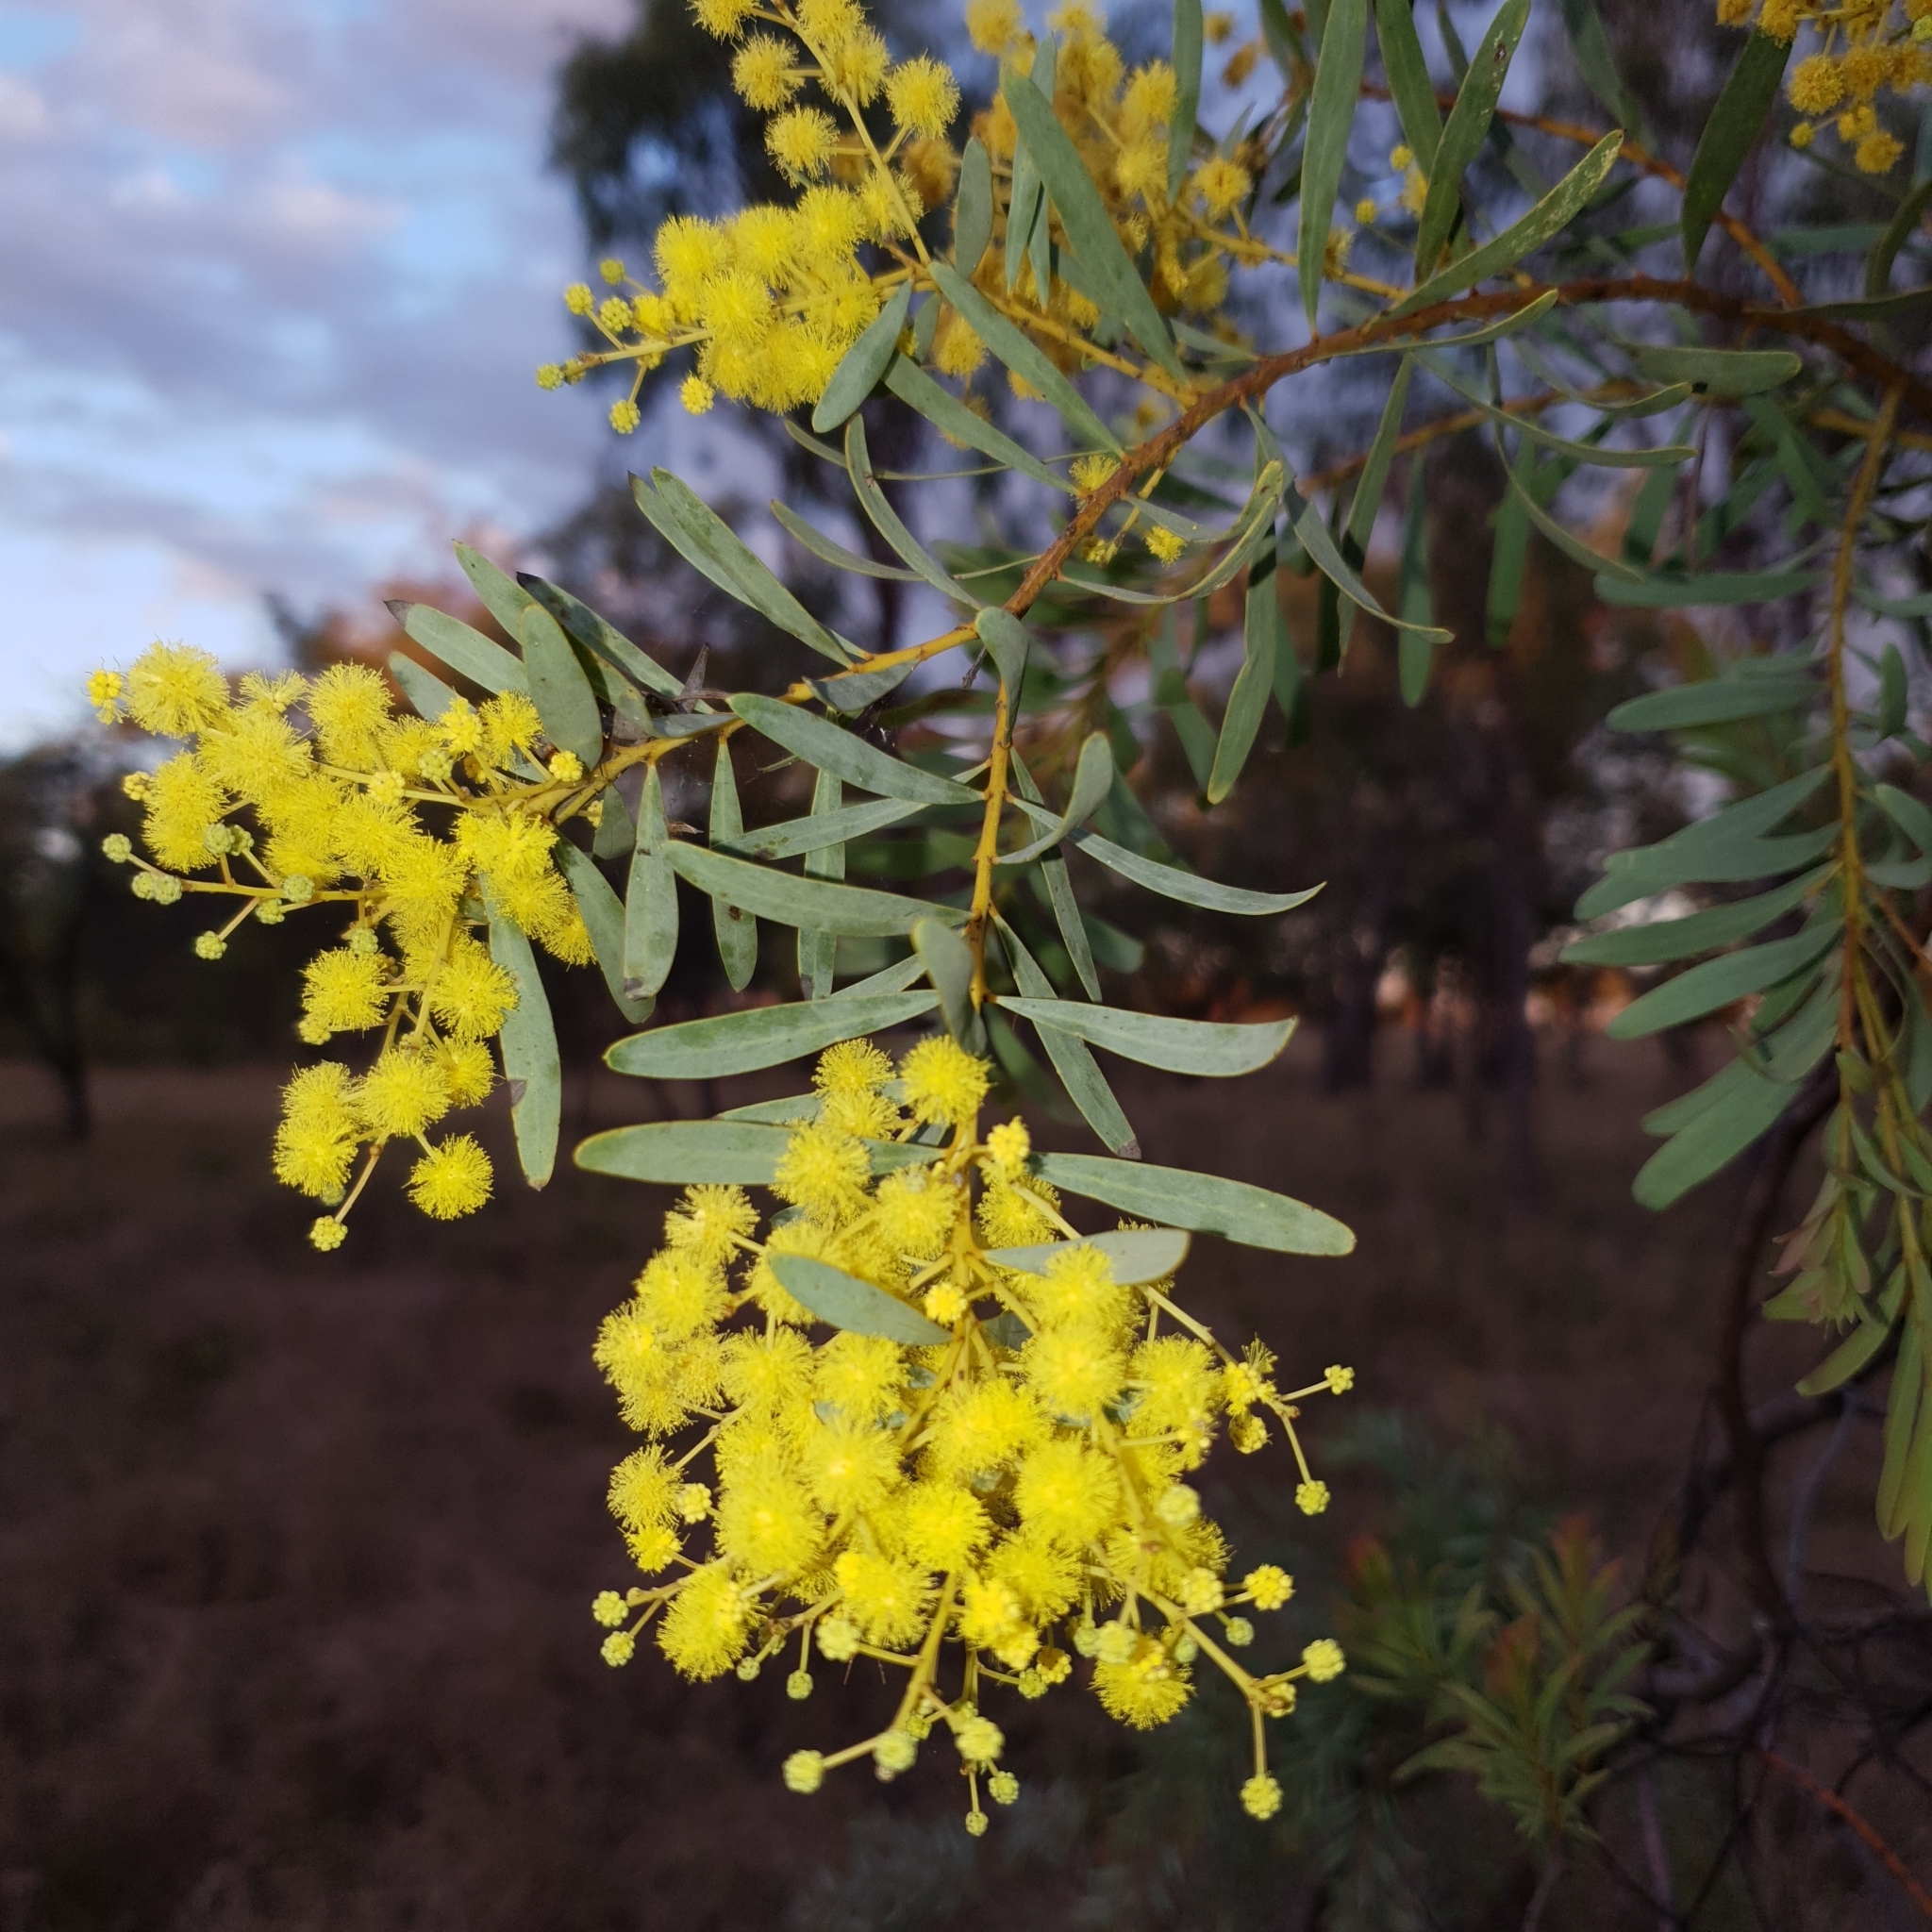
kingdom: Plantae
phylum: Tracheophyta
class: Magnoliopsida
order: Fabales
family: Fabaceae
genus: Acacia
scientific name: Acacia decora
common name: Showy wattle
